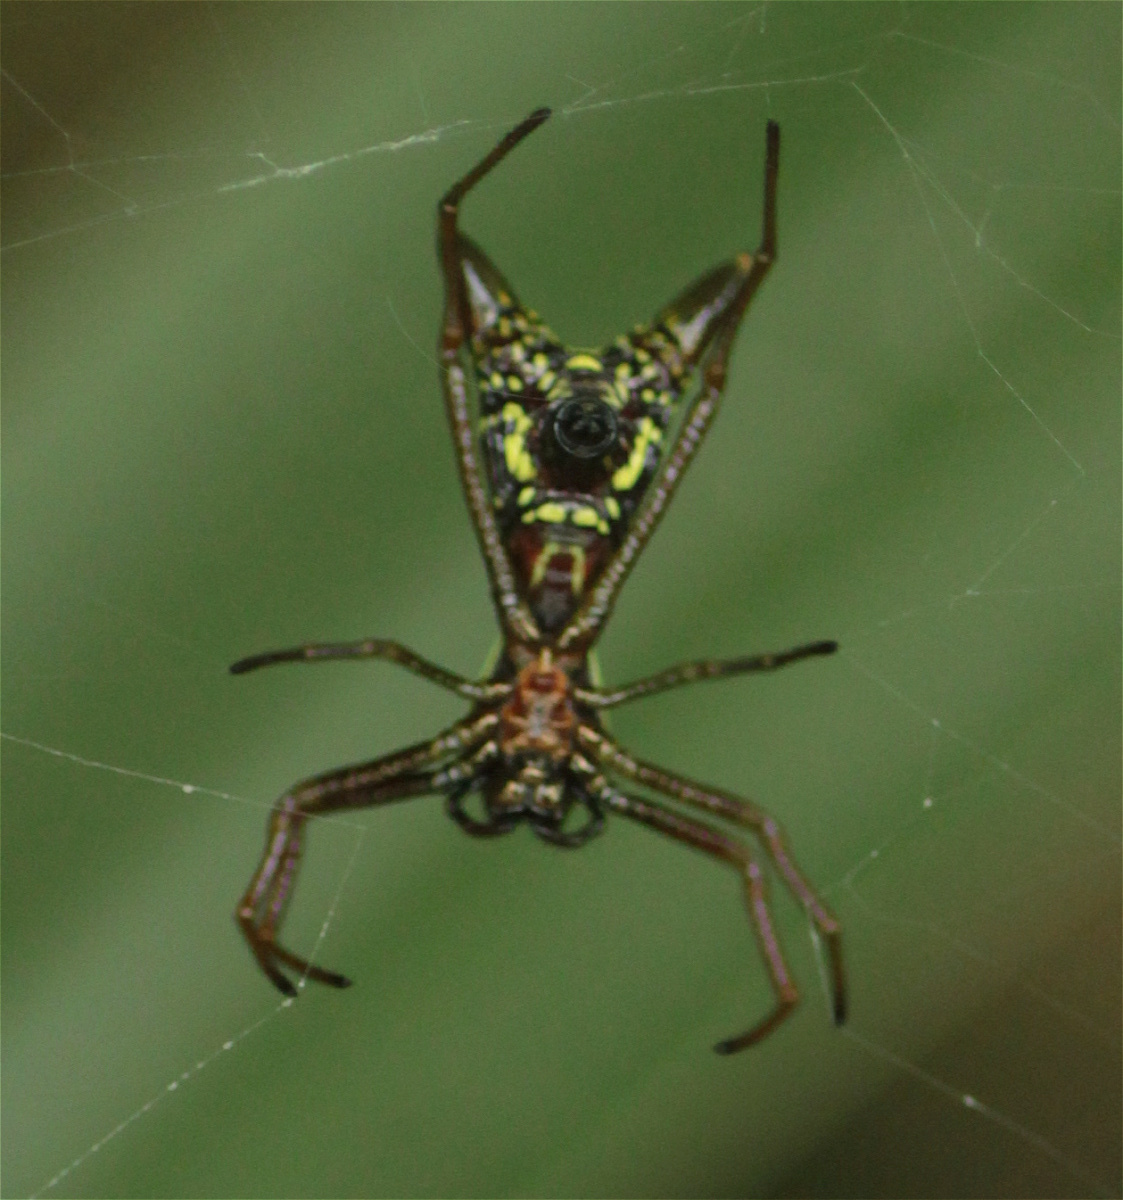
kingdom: Animalia
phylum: Arthropoda
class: Arachnida
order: Araneae
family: Araneidae
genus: Micrathena
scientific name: Micrathena sexspinosa
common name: Orb weavers
